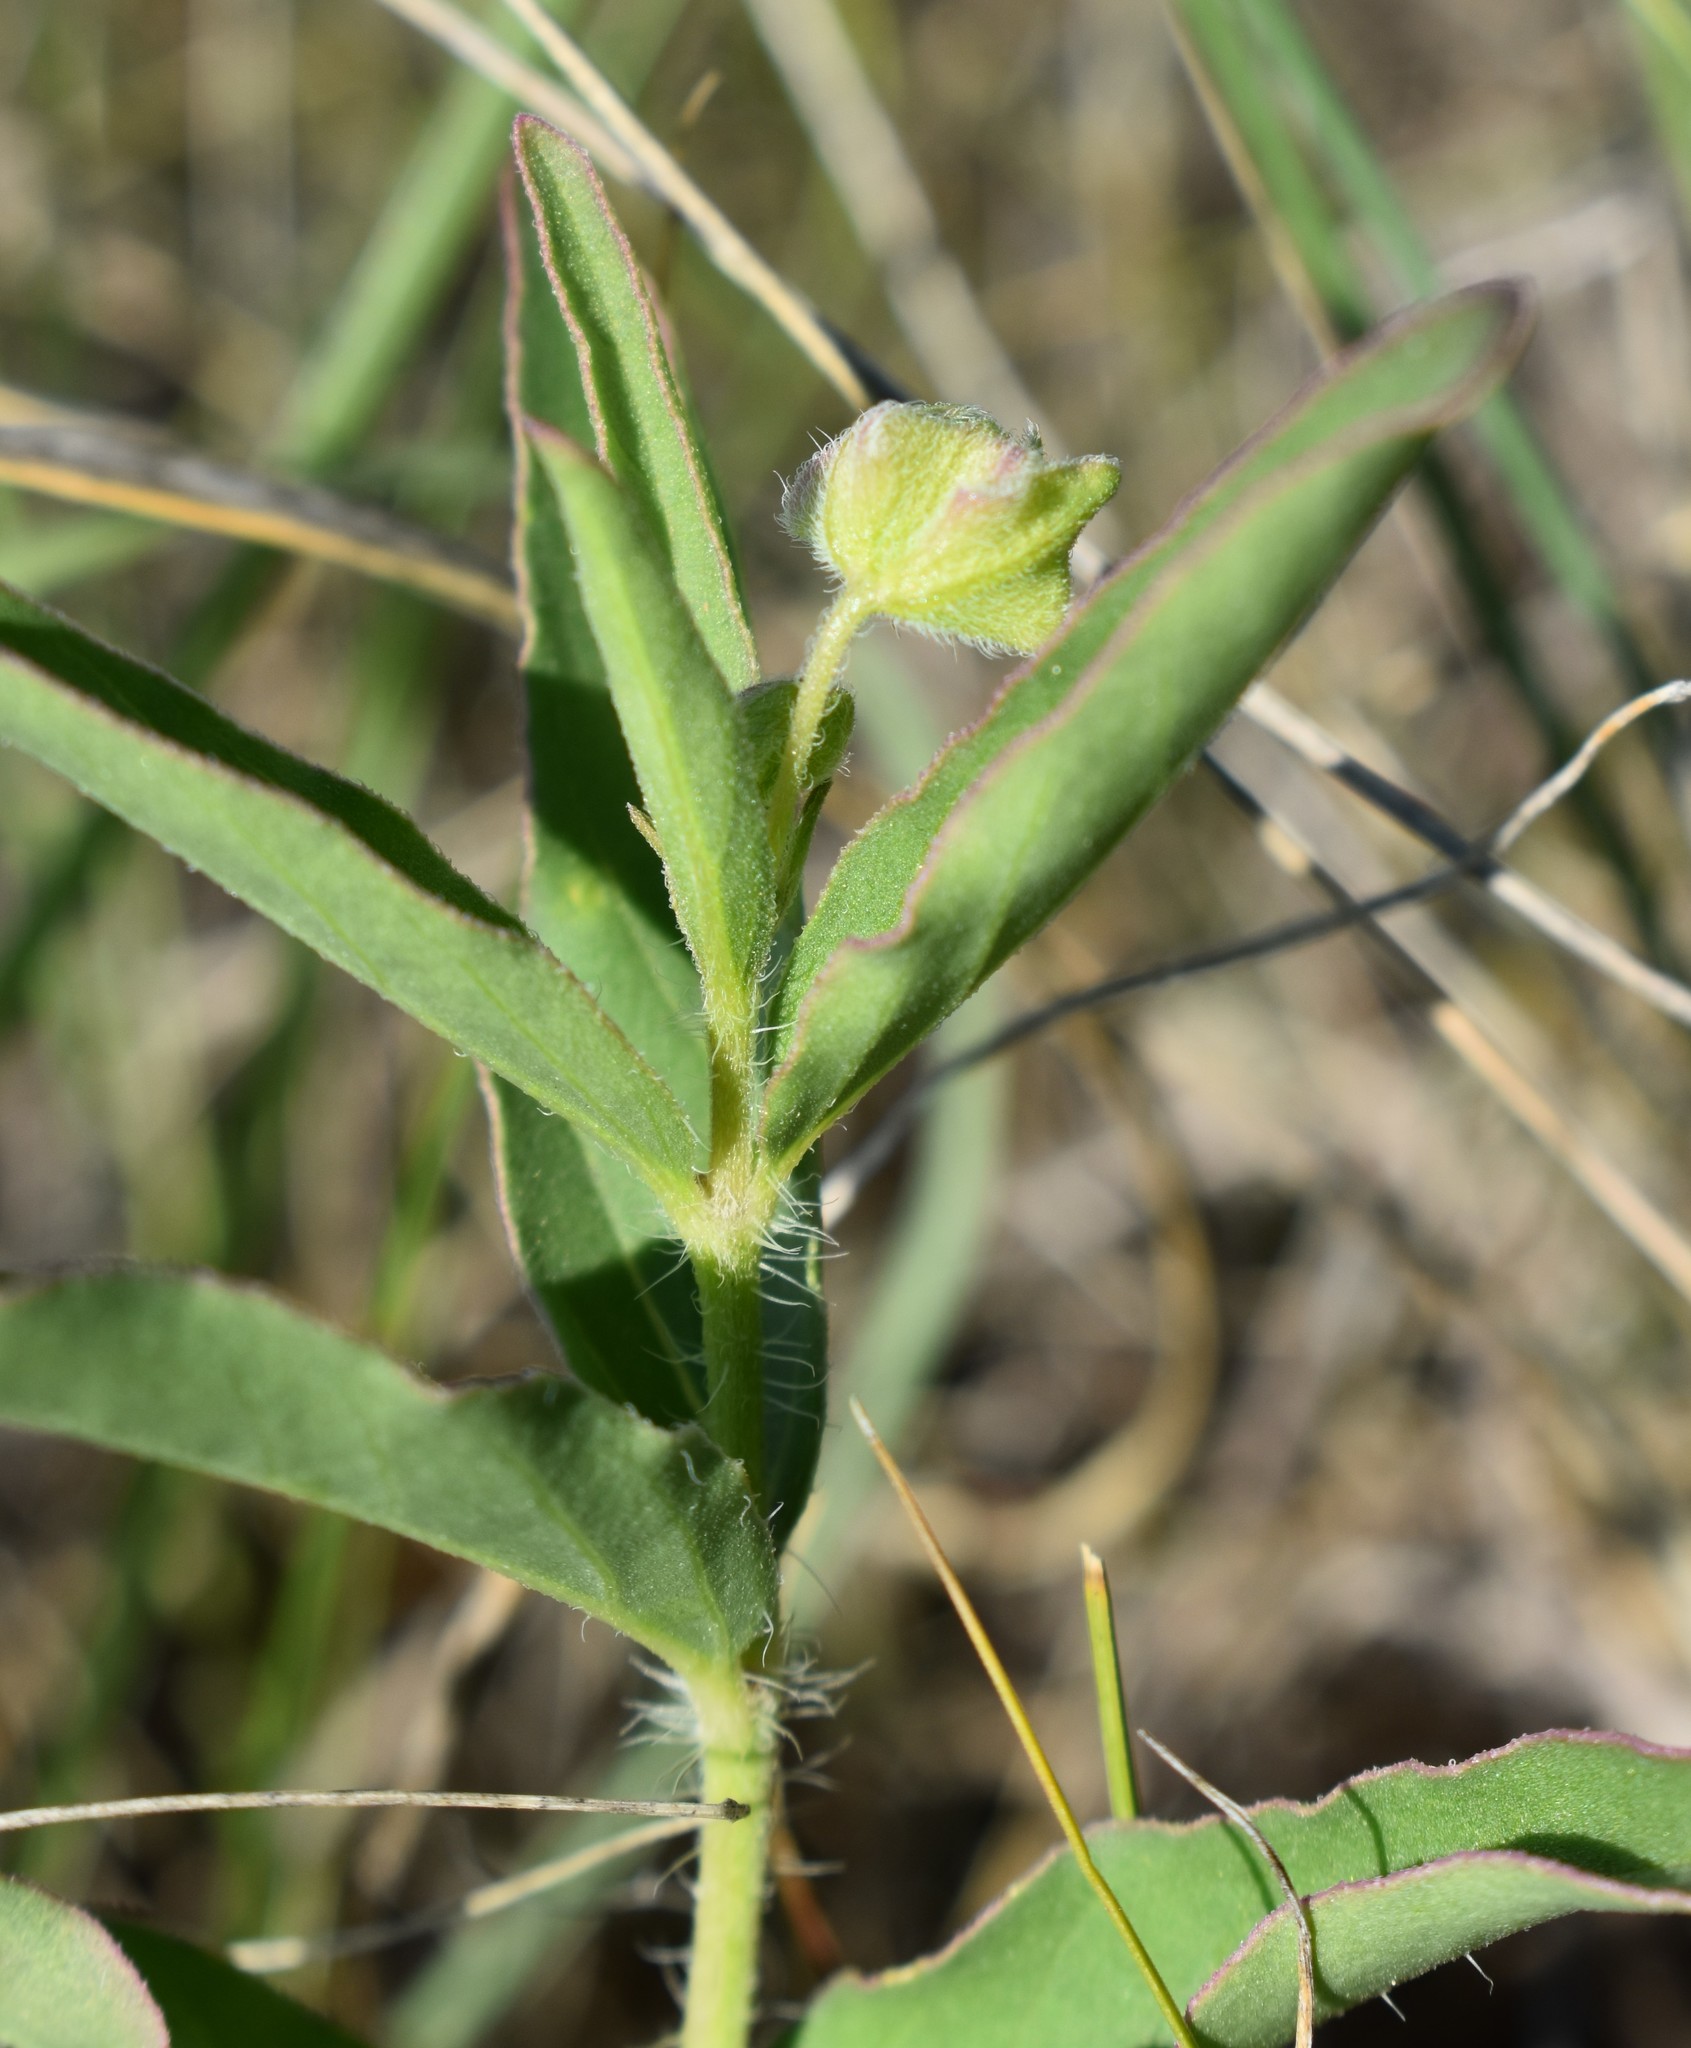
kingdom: Plantae
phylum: Tracheophyta
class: Magnoliopsida
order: Caryophyllales
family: Nyctaginaceae
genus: Mirabilis
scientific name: Mirabilis albida
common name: Hairy four-o'clock
